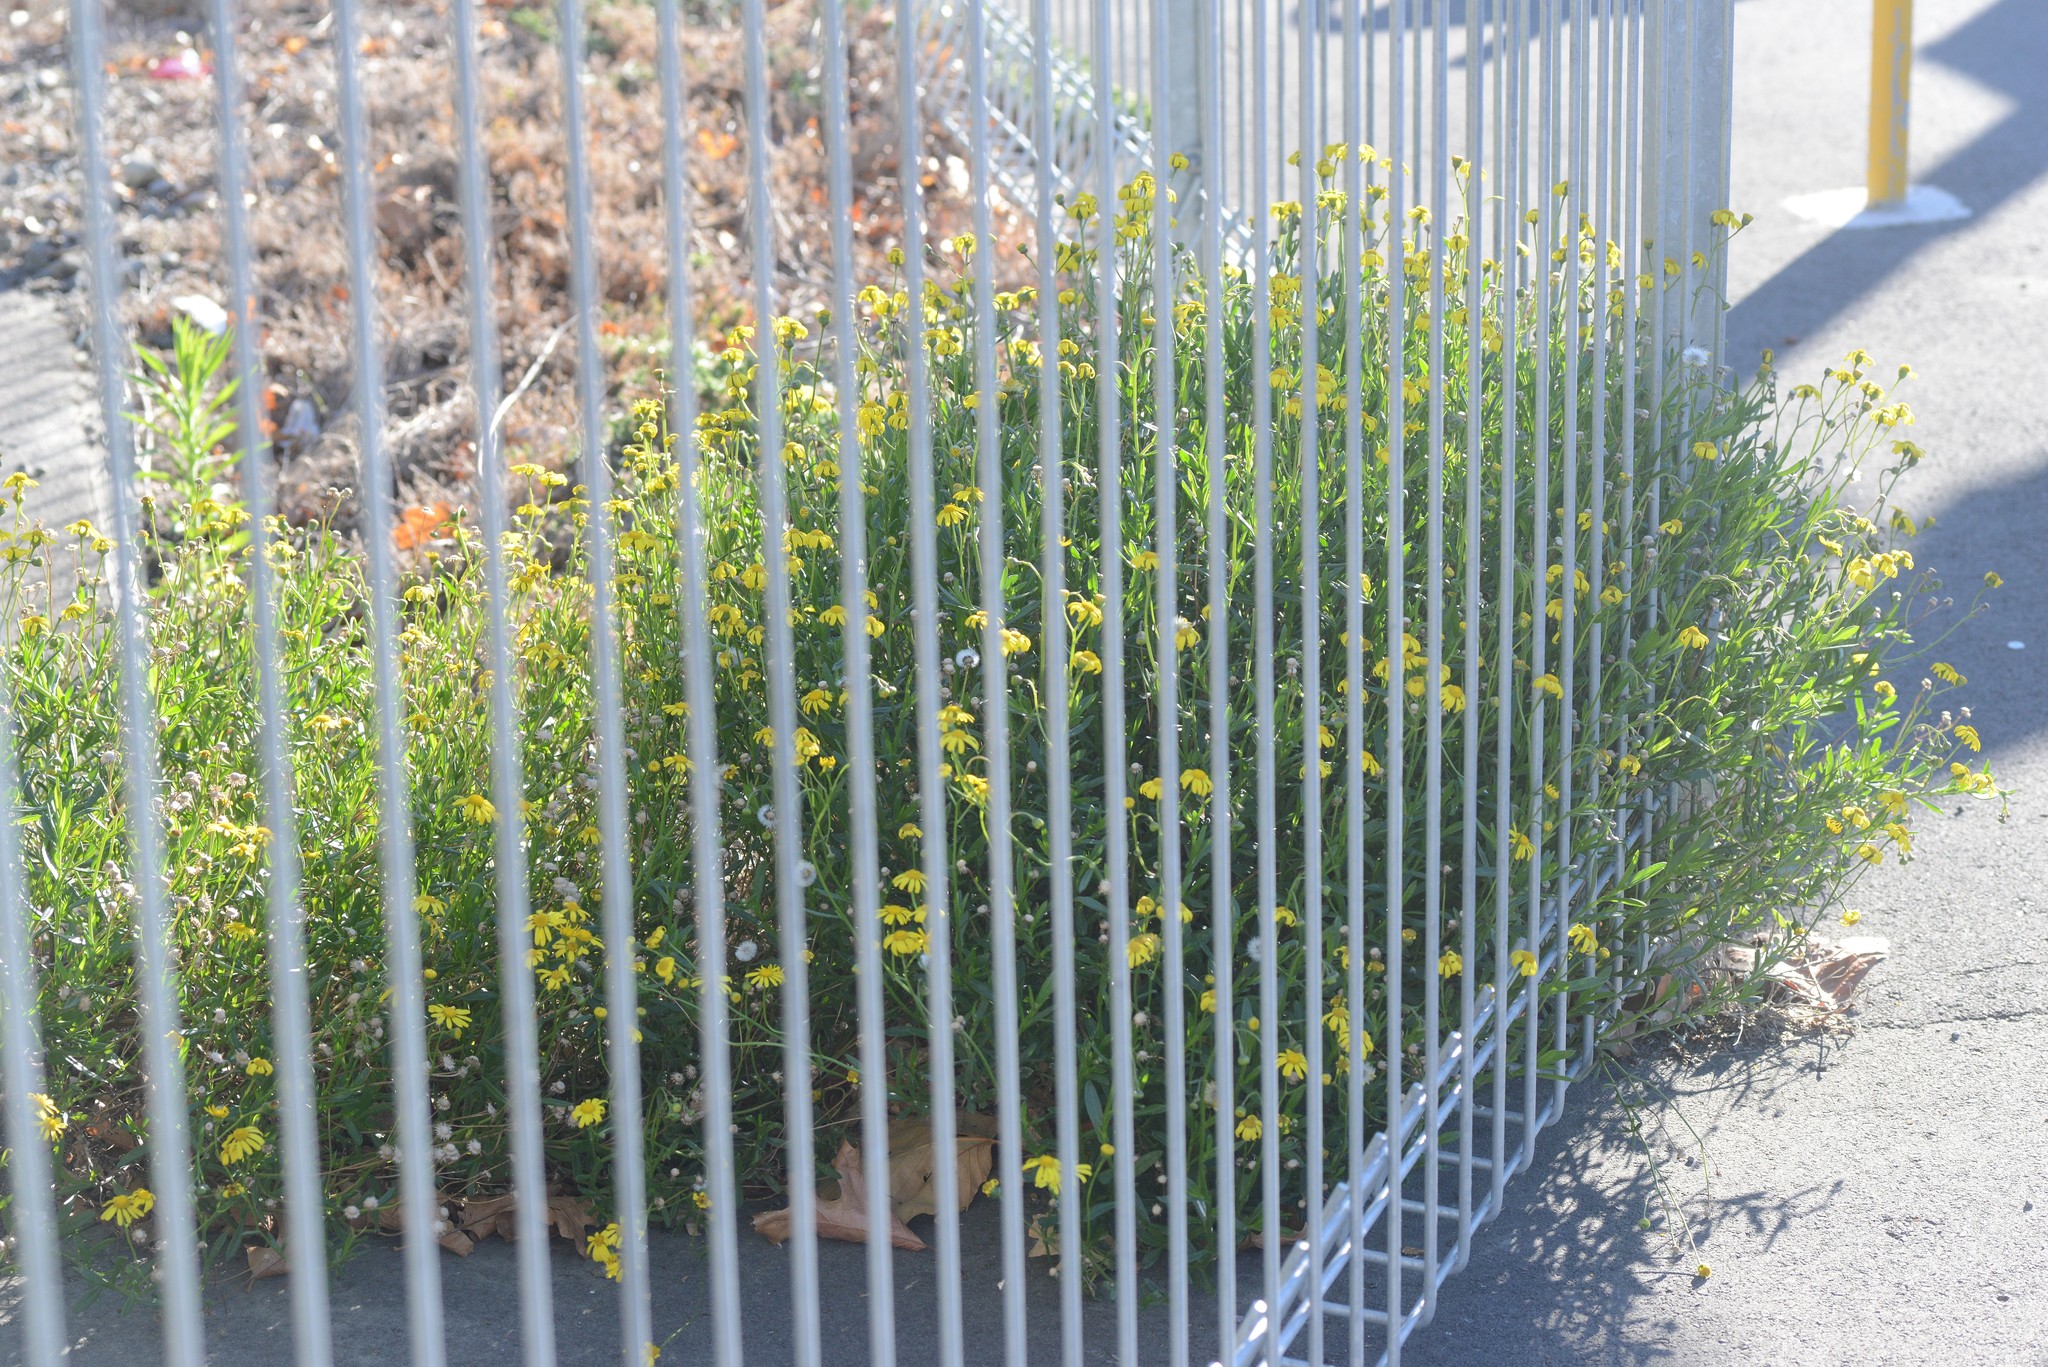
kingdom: Plantae
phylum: Tracheophyta
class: Magnoliopsida
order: Asterales
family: Asteraceae
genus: Senecio
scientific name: Senecio skirrhodon
